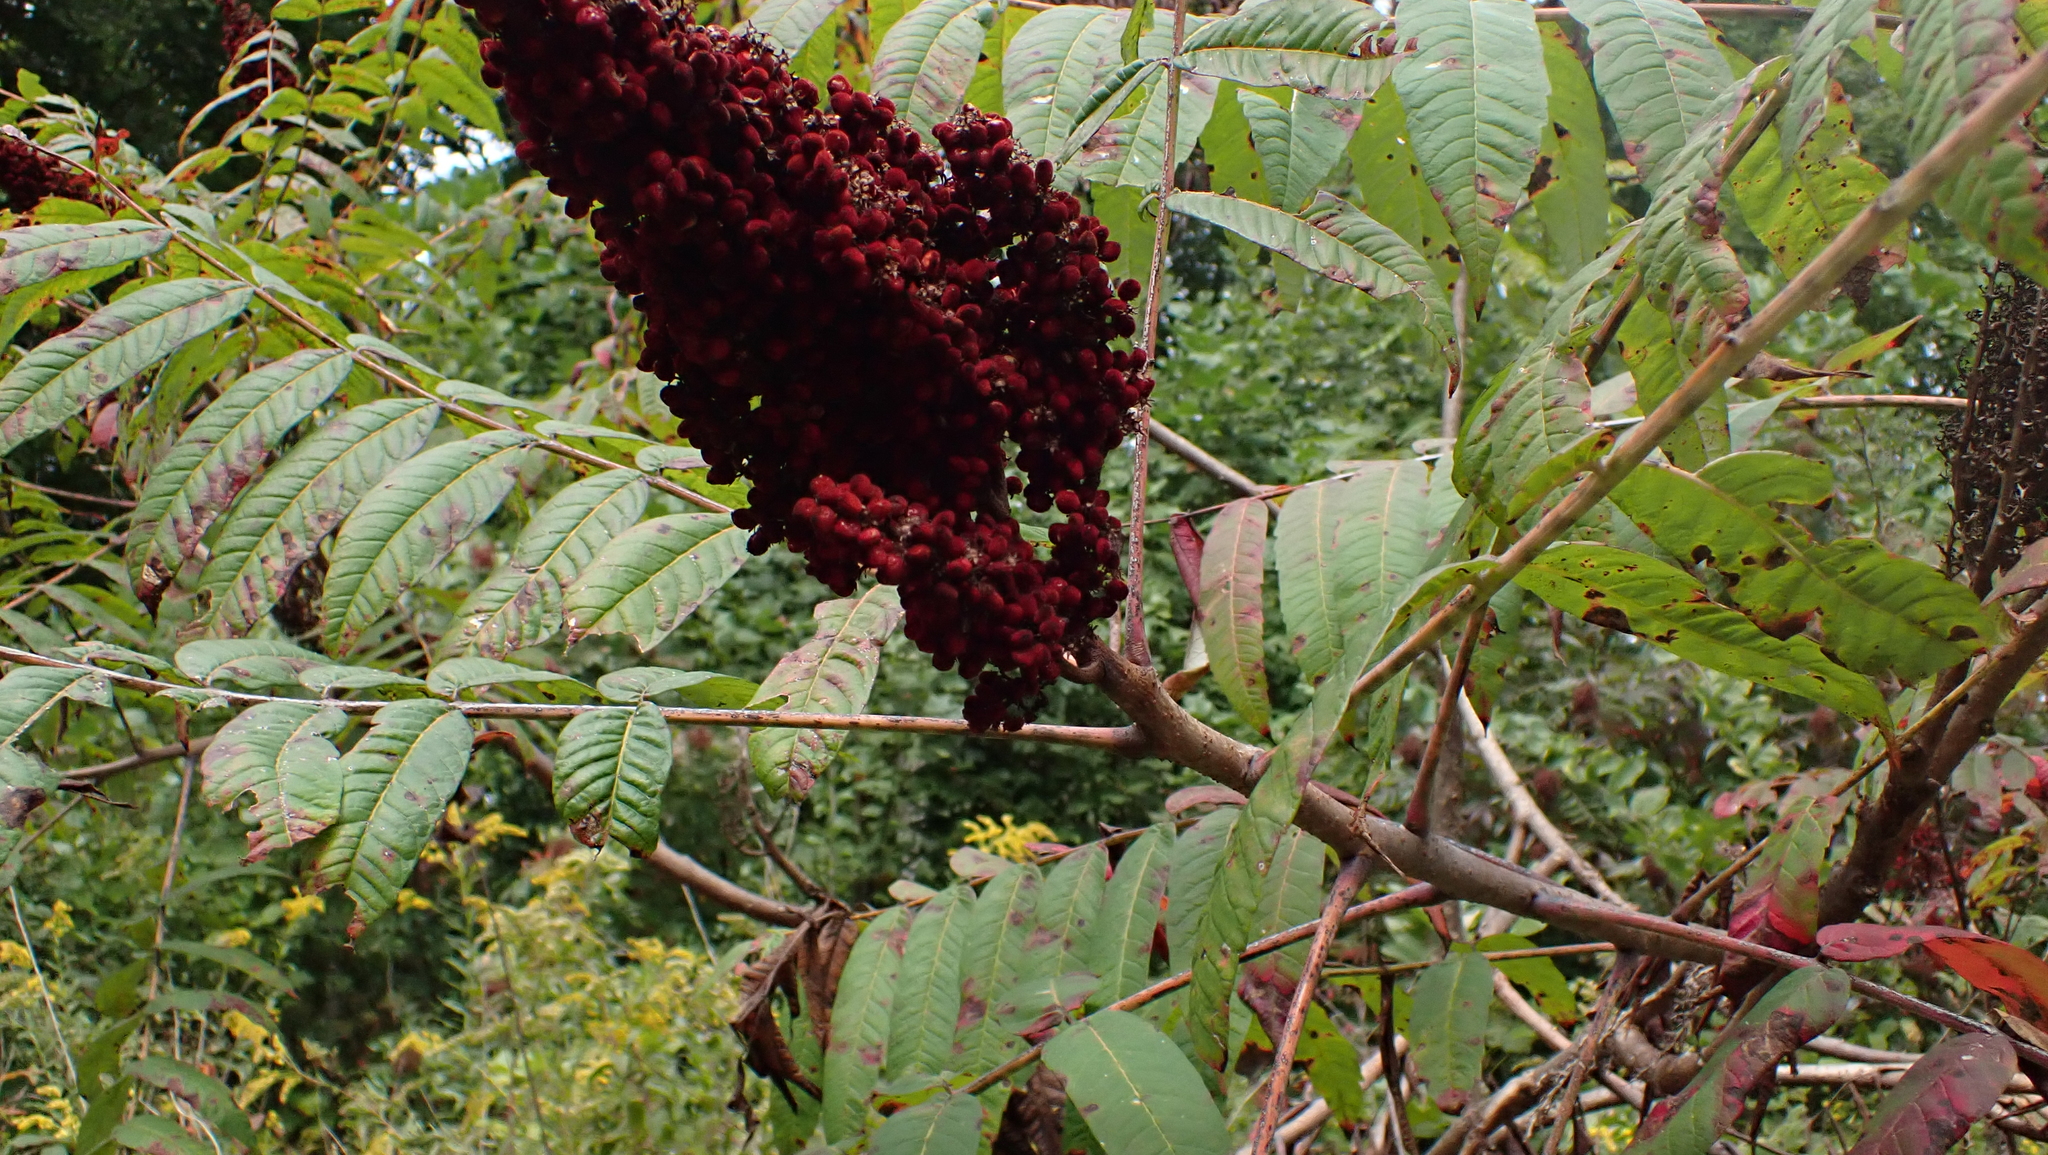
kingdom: Plantae
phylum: Tracheophyta
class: Magnoliopsida
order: Sapindales
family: Anacardiaceae
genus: Rhus
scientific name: Rhus glabra
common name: Scarlet sumac
